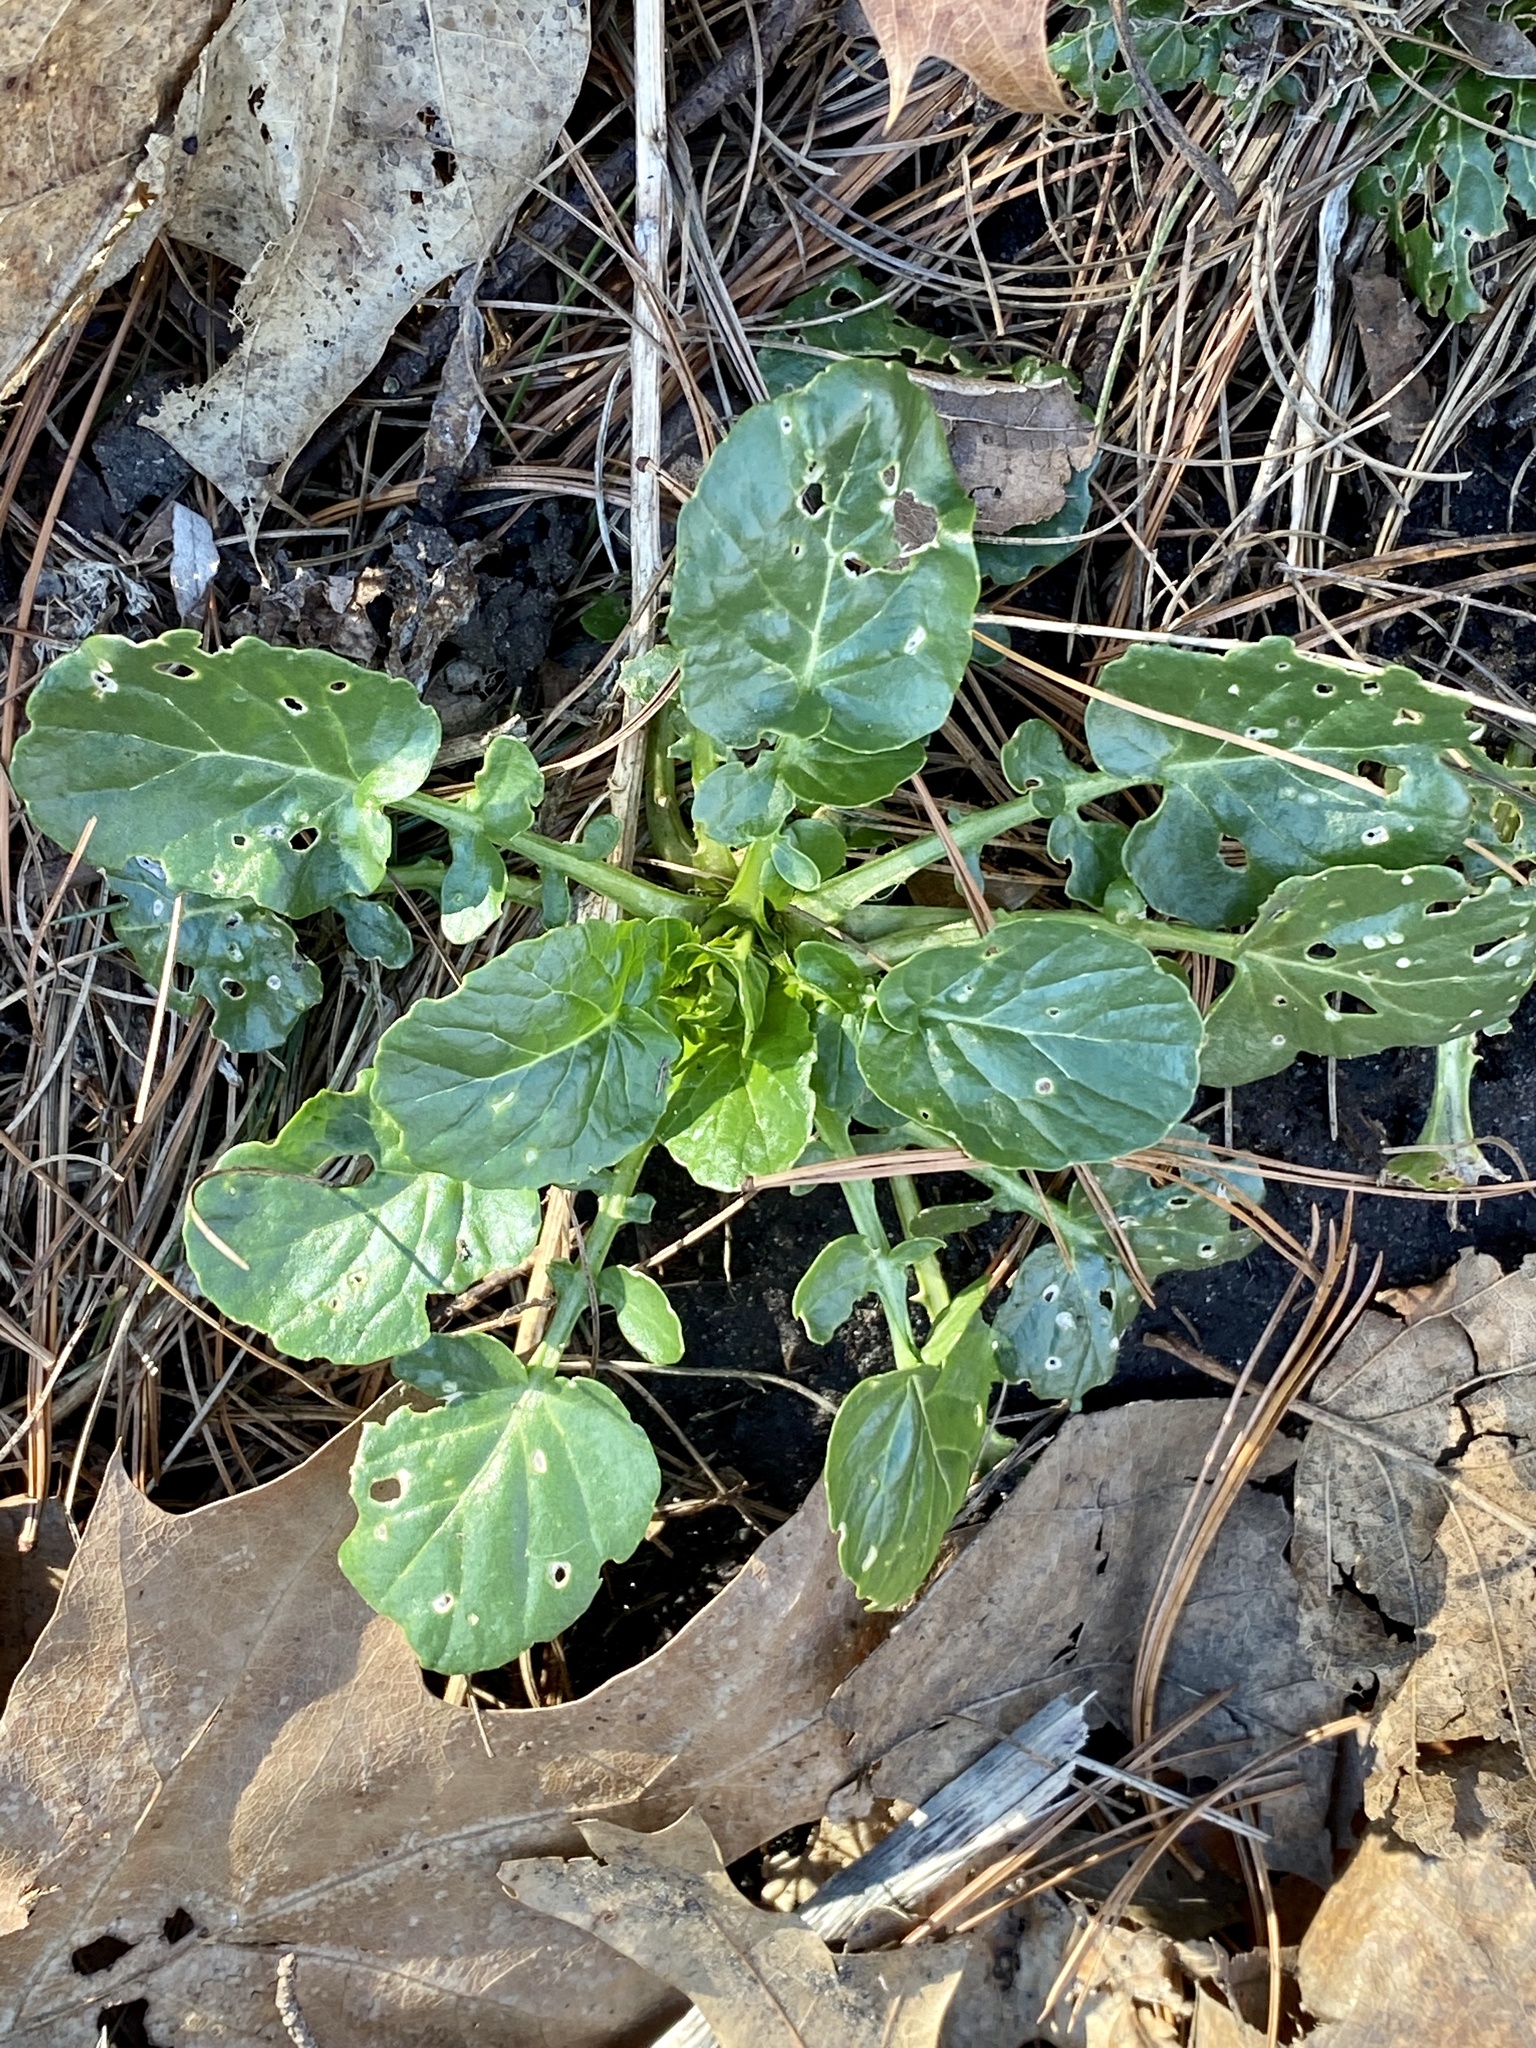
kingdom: Plantae
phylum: Tracheophyta
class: Magnoliopsida
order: Brassicales
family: Brassicaceae
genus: Barbarea
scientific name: Barbarea vulgaris
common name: Cressy-greens
